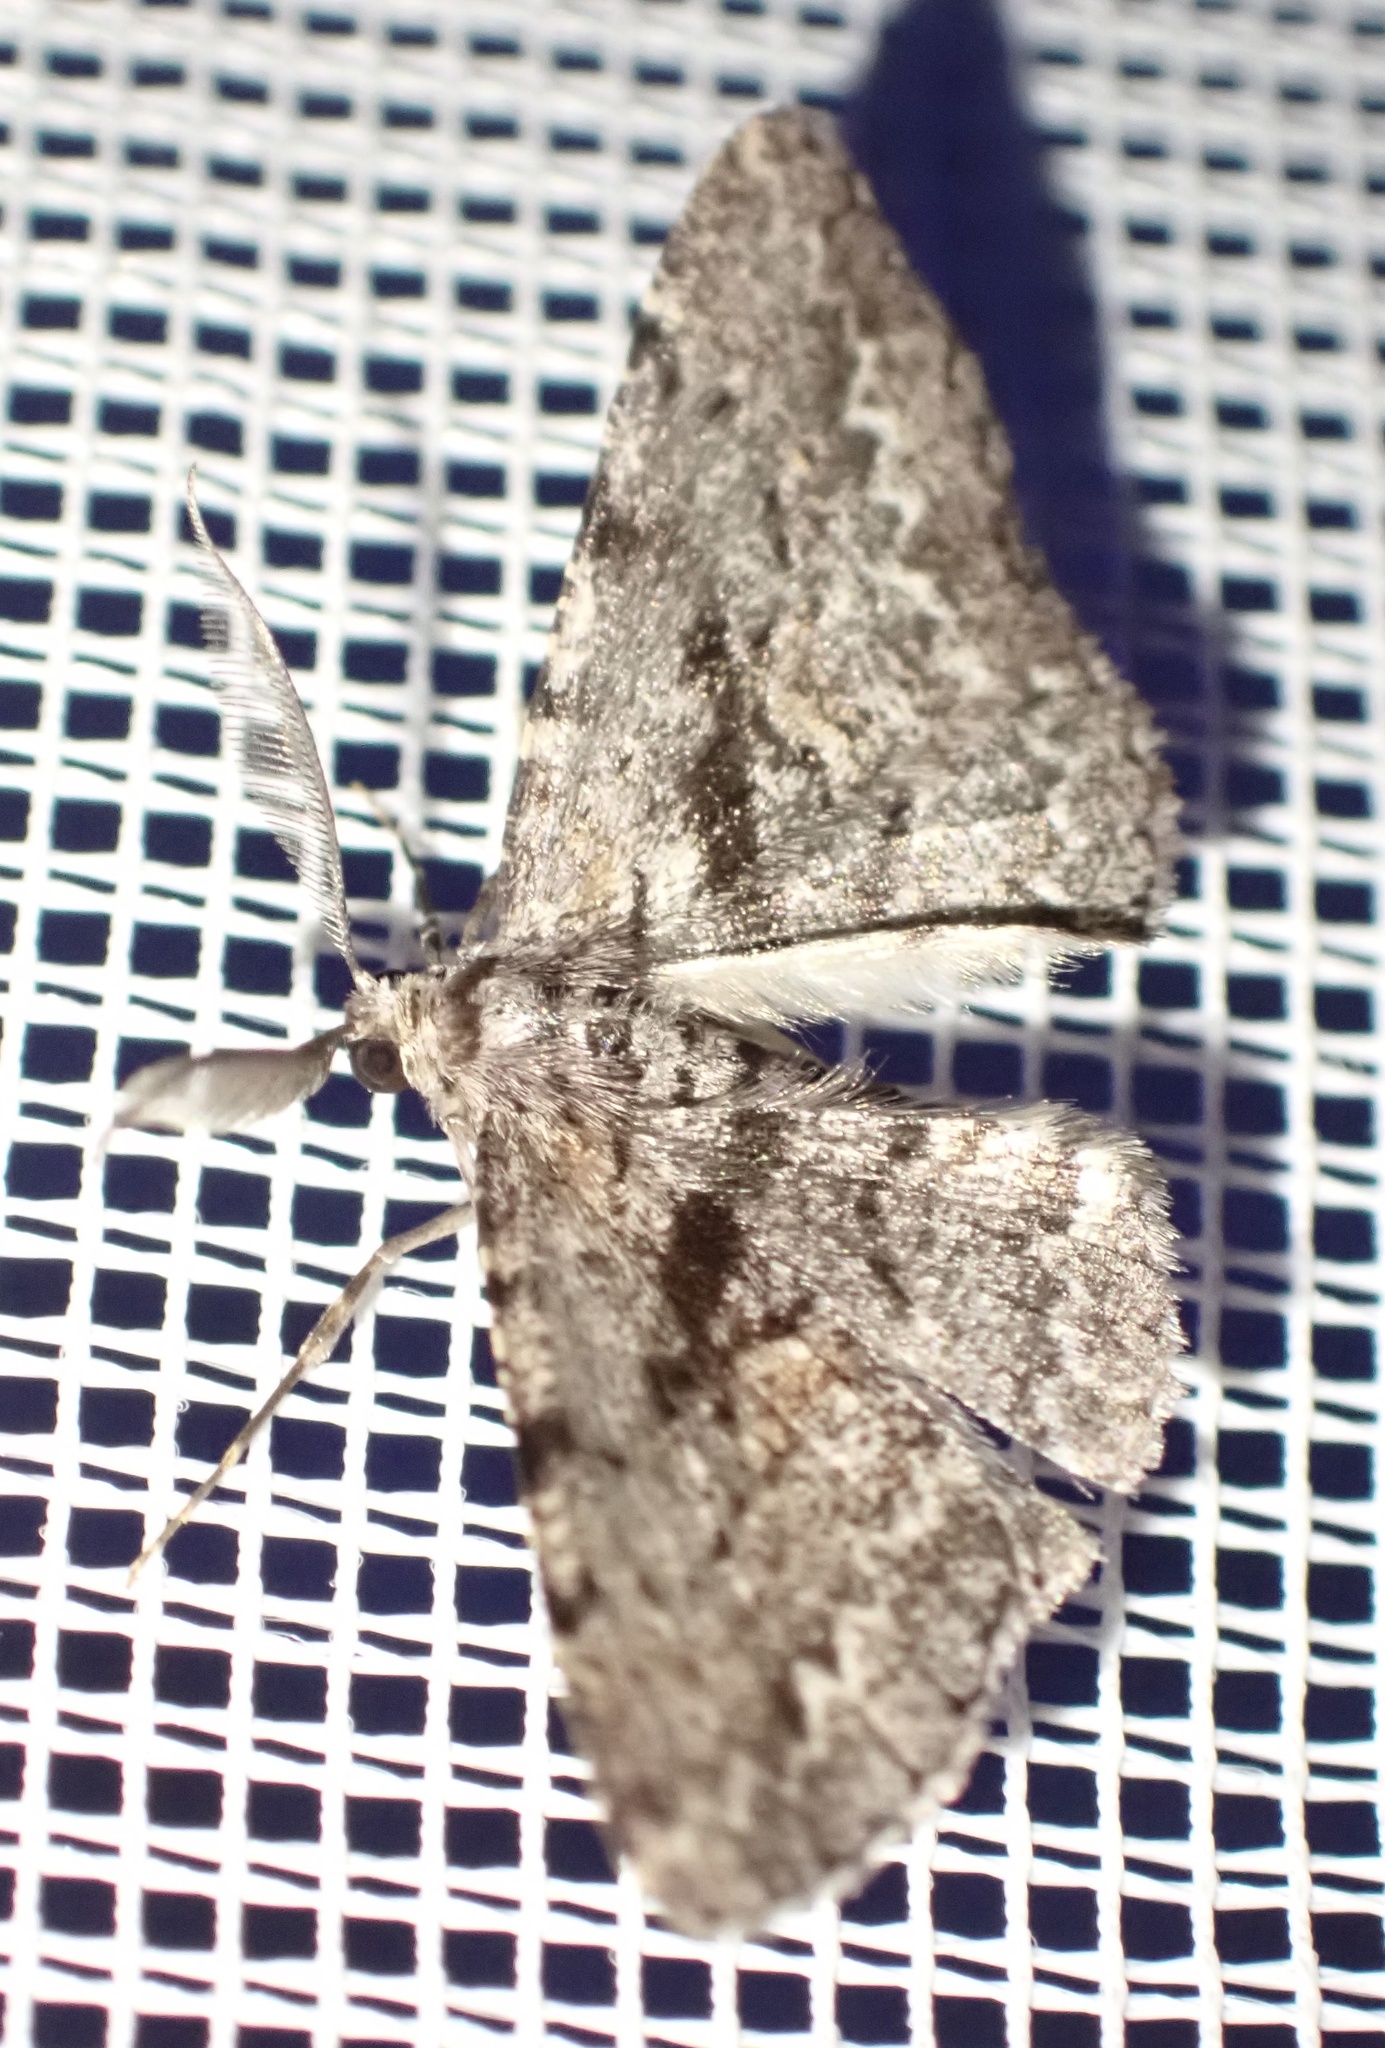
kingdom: Animalia
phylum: Arthropoda
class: Insecta
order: Lepidoptera
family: Geometridae
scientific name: Geometridae
